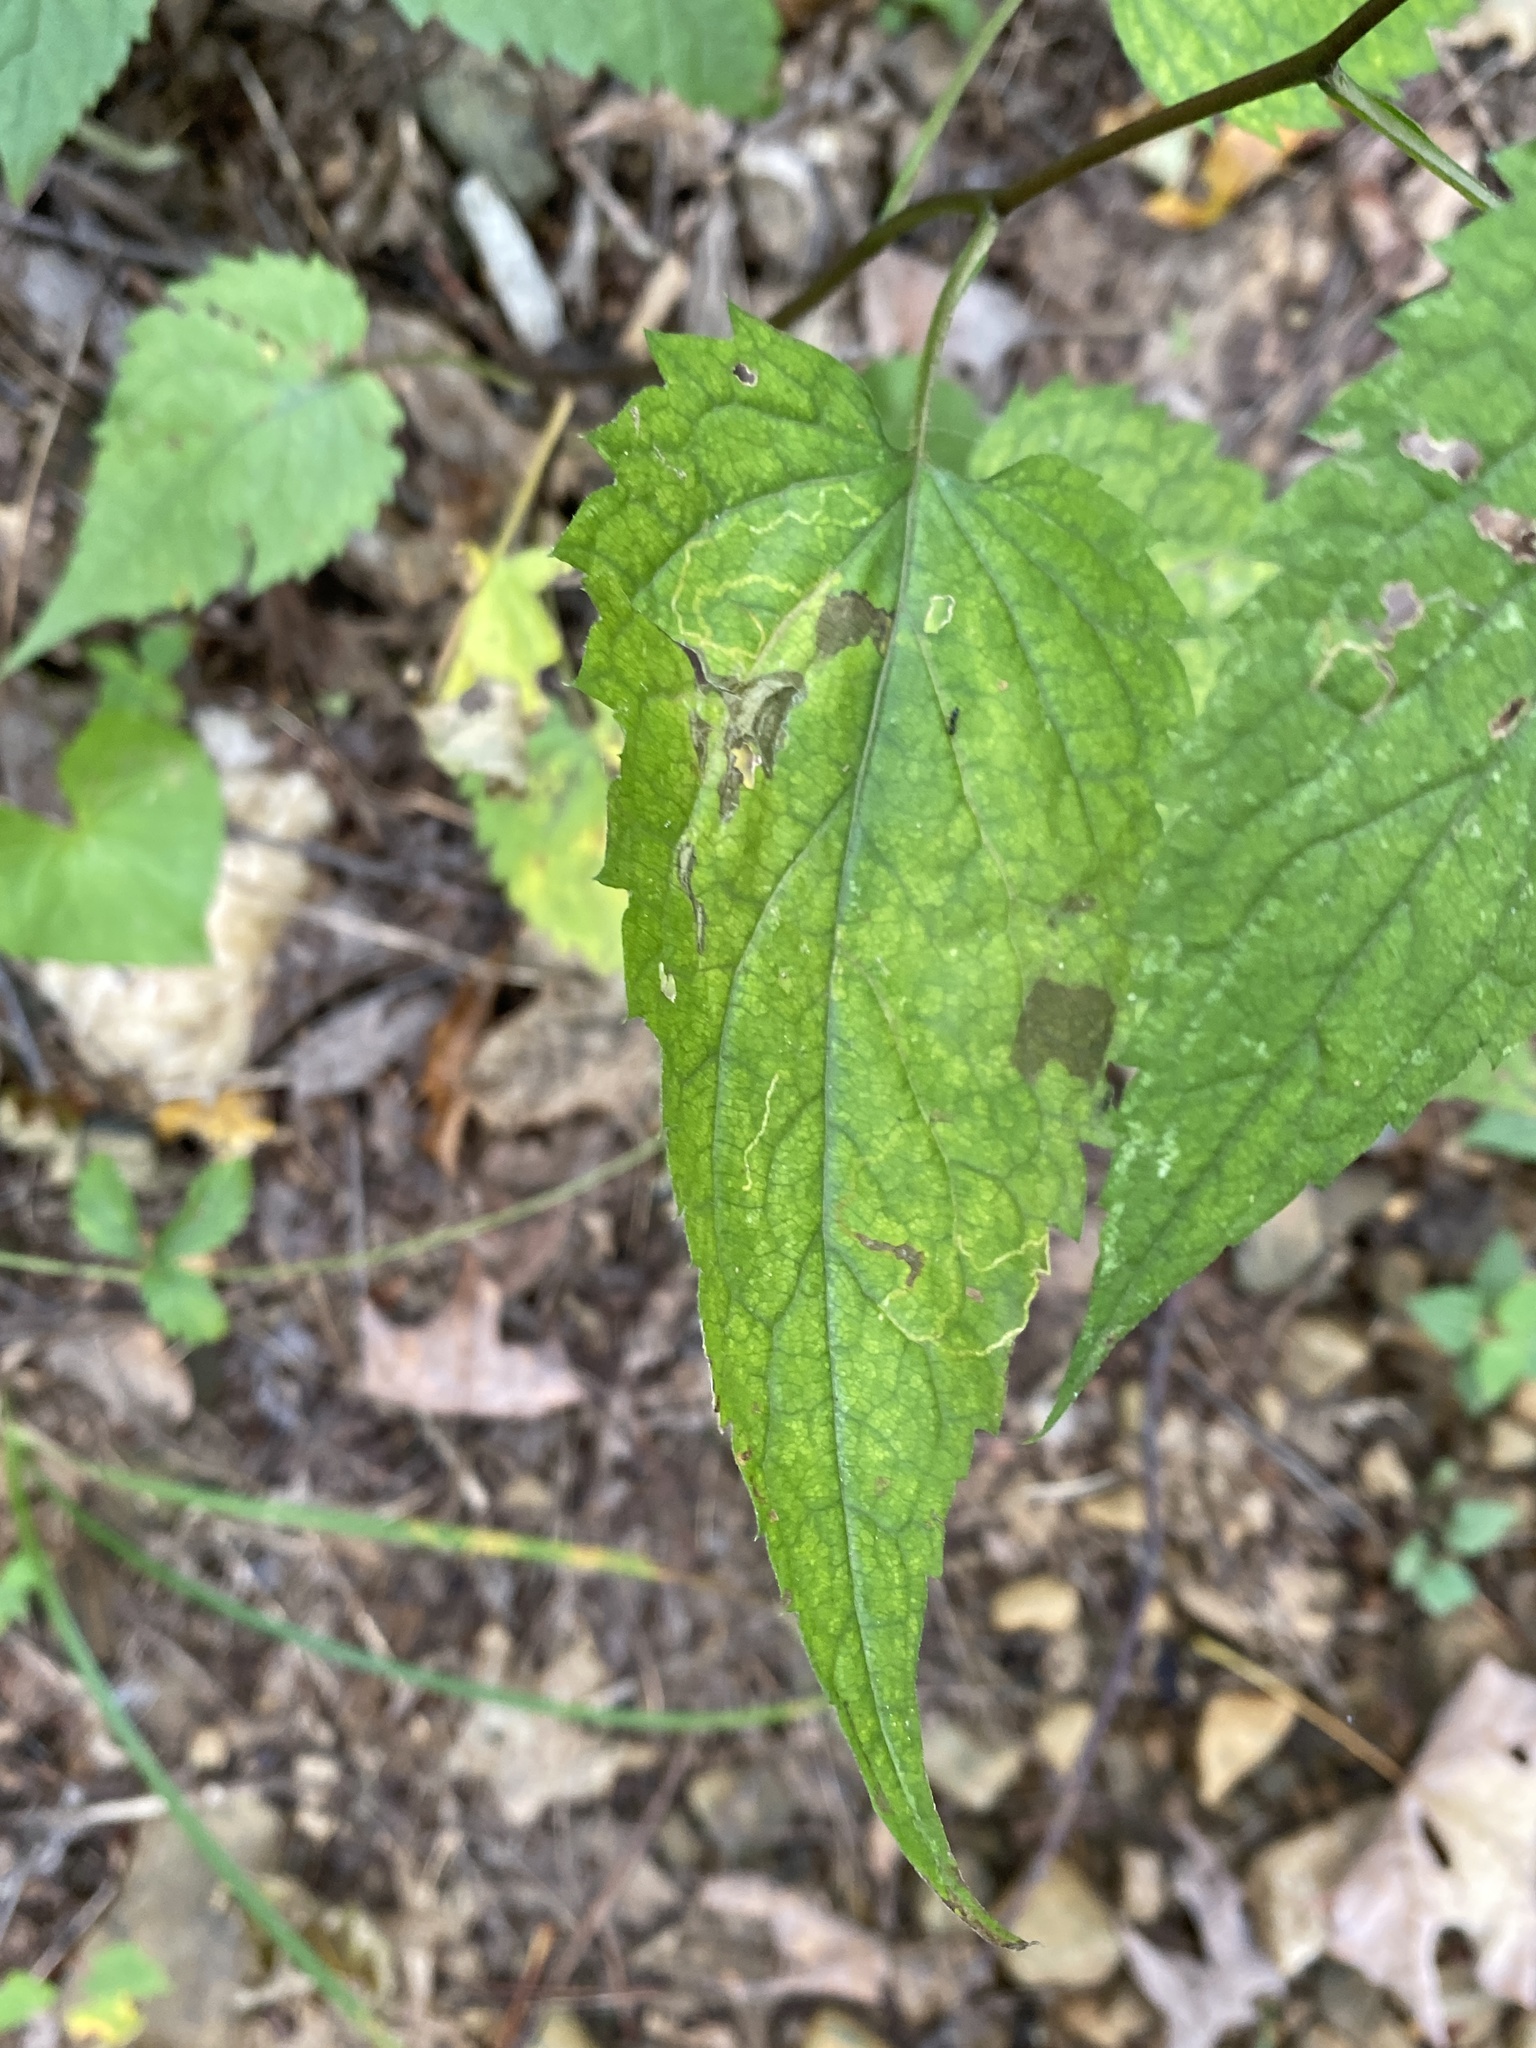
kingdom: Plantae
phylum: Tracheophyta
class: Magnoliopsida
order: Asterales
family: Asteraceae
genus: Eurybia
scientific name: Eurybia chlorolepis
